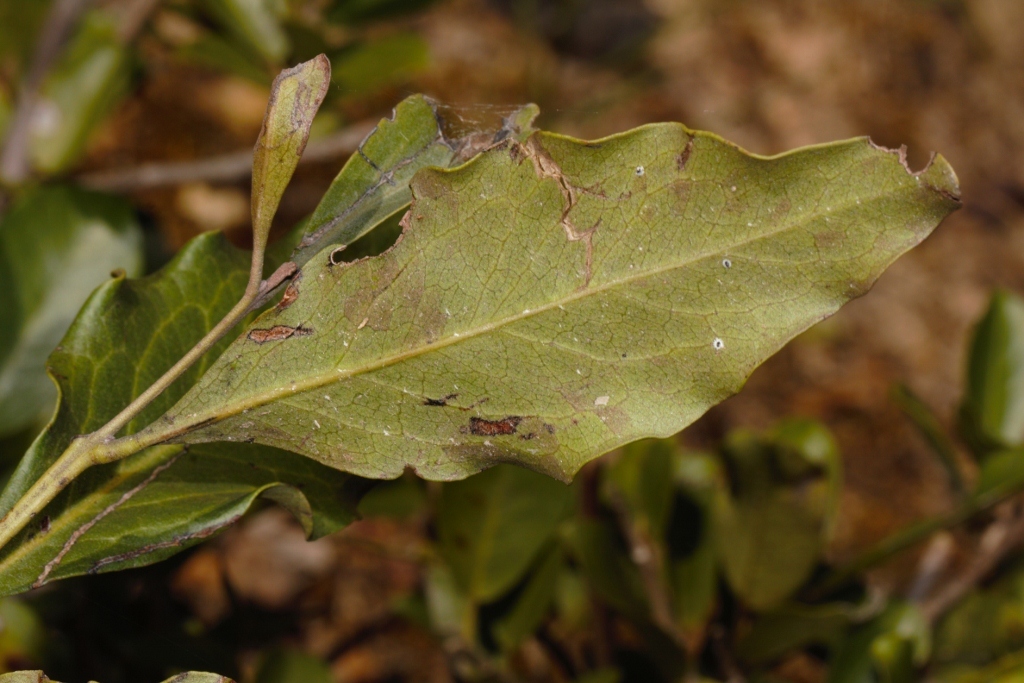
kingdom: Plantae
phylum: Tracheophyta
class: Magnoliopsida
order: Ericales
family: Ebenaceae
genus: Euclea
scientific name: Euclea divinorum
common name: Diamond-leaved euclea
